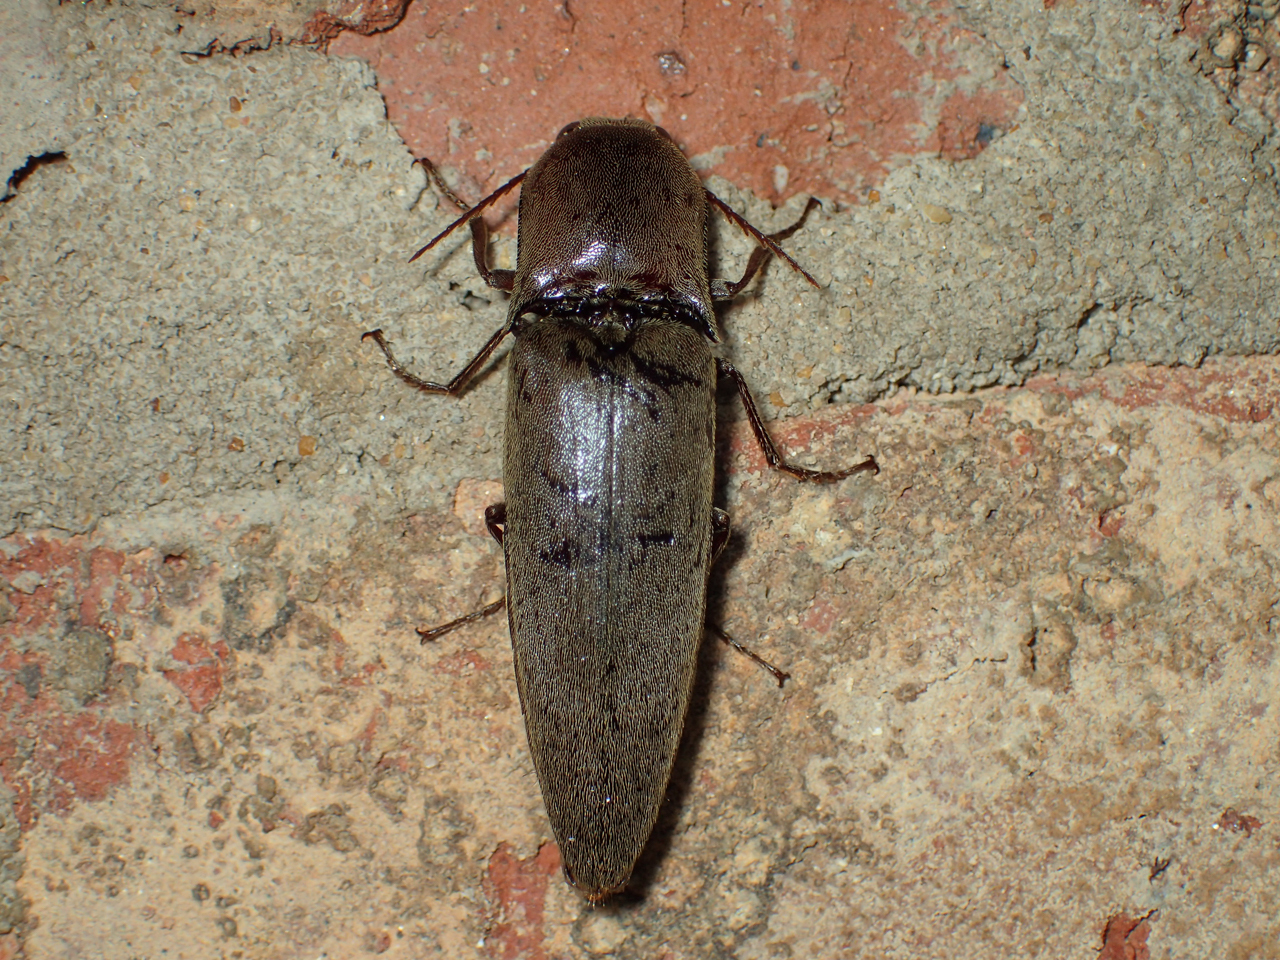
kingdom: Animalia
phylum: Arthropoda
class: Insecta
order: Coleoptera
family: Elateridae
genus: Orthostethus
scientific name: Orthostethus infuscatus
